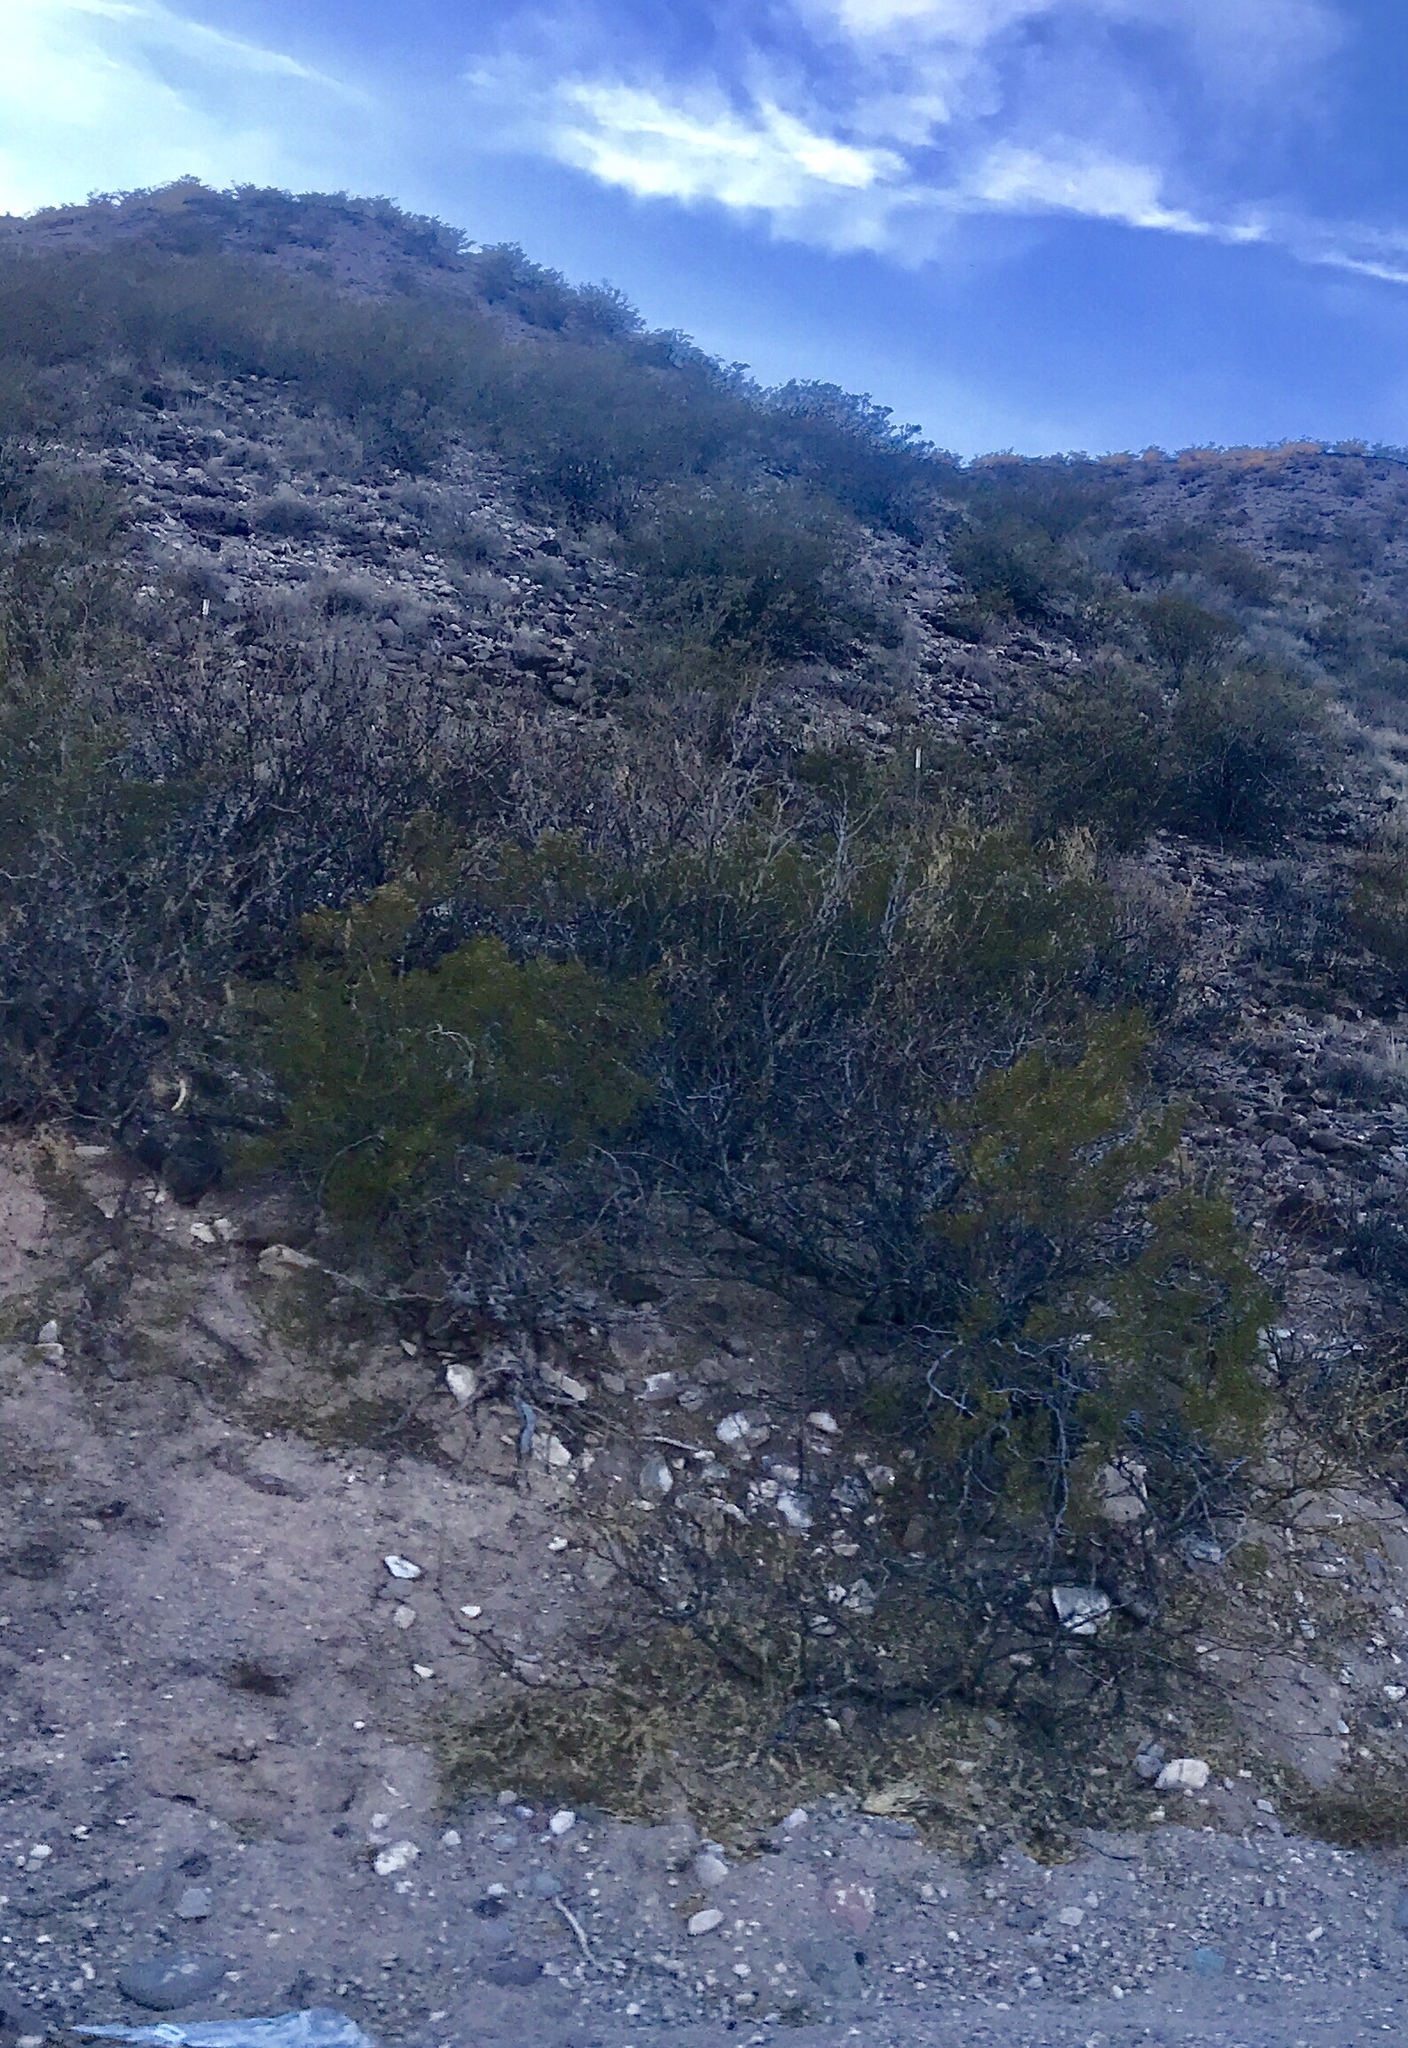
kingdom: Plantae
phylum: Tracheophyta
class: Magnoliopsida
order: Zygophyllales
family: Zygophyllaceae
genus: Larrea
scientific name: Larrea tridentata
